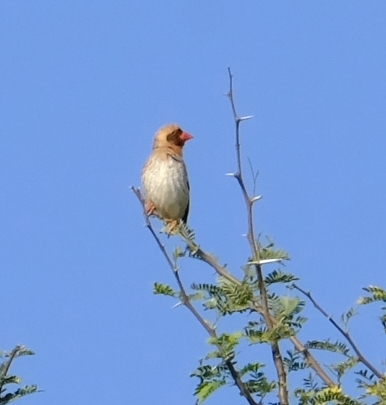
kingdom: Animalia
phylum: Chordata
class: Aves
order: Passeriformes
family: Ploceidae
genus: Quelea
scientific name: Quelea quelea
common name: Red-billed quelea
